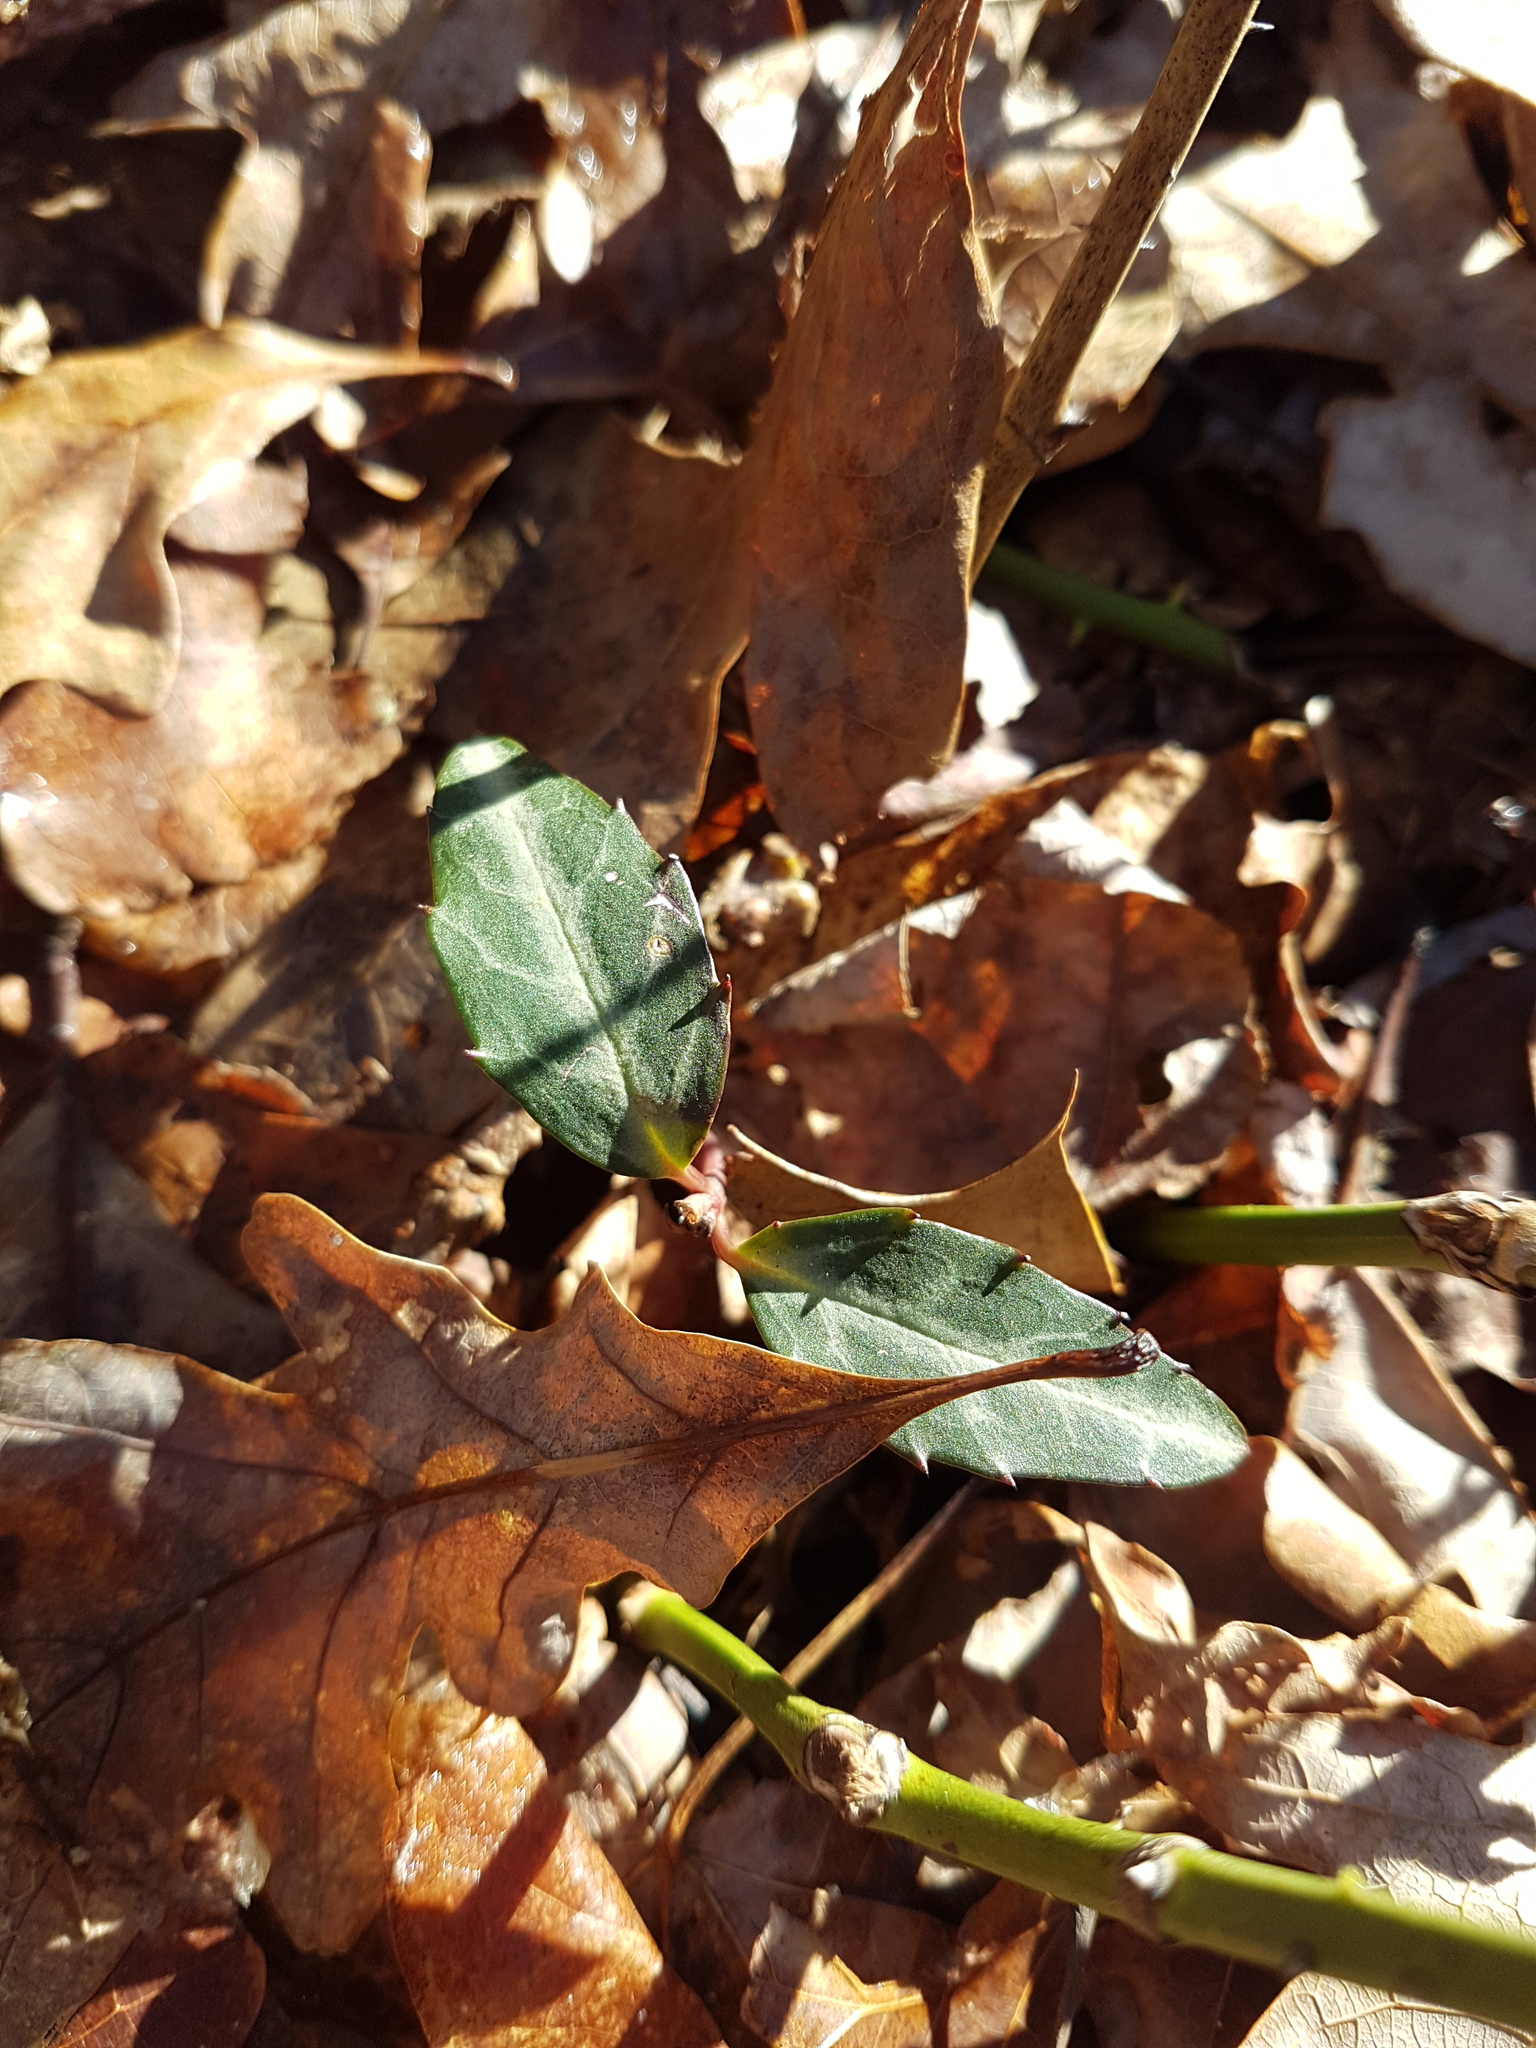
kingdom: Plantae
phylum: Tracheophyta
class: Magnoliopsida
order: Ericales
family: Ericaceae
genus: Chimaphila
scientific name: Chimaphila maculata
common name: Spotted pipsissewa
